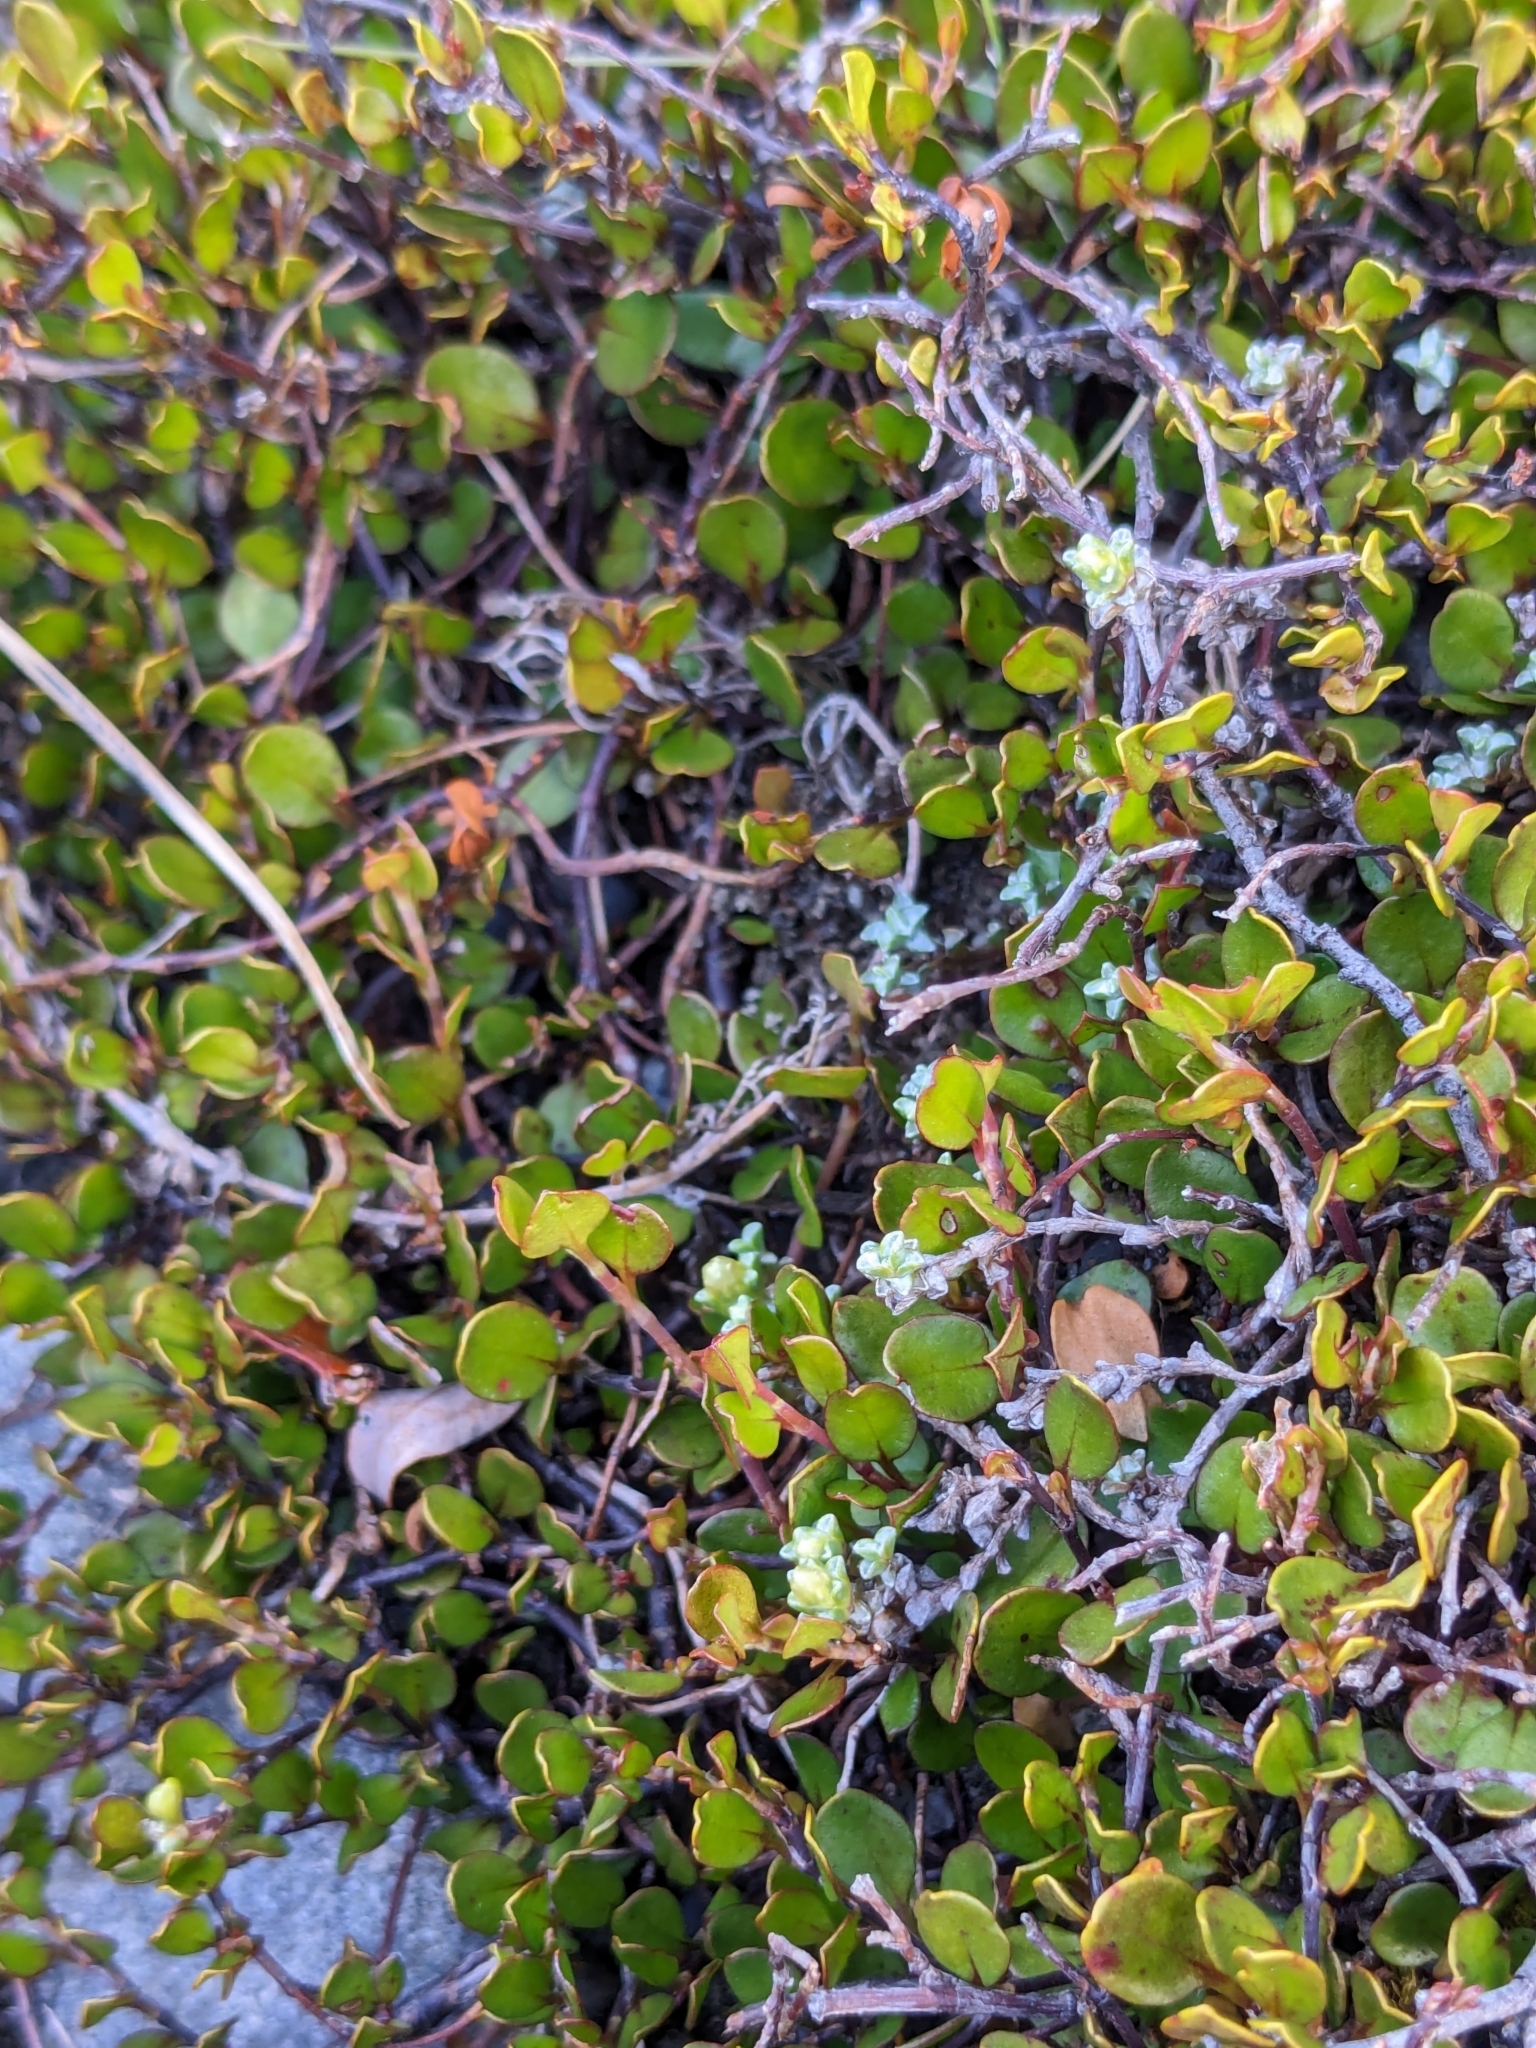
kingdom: Plantae
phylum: Tracheophyta
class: Magnoliopsida
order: Caryophyllales
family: Polygonaceae
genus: Muehlenbeckia
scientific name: Muehlenbeckia axillaris
